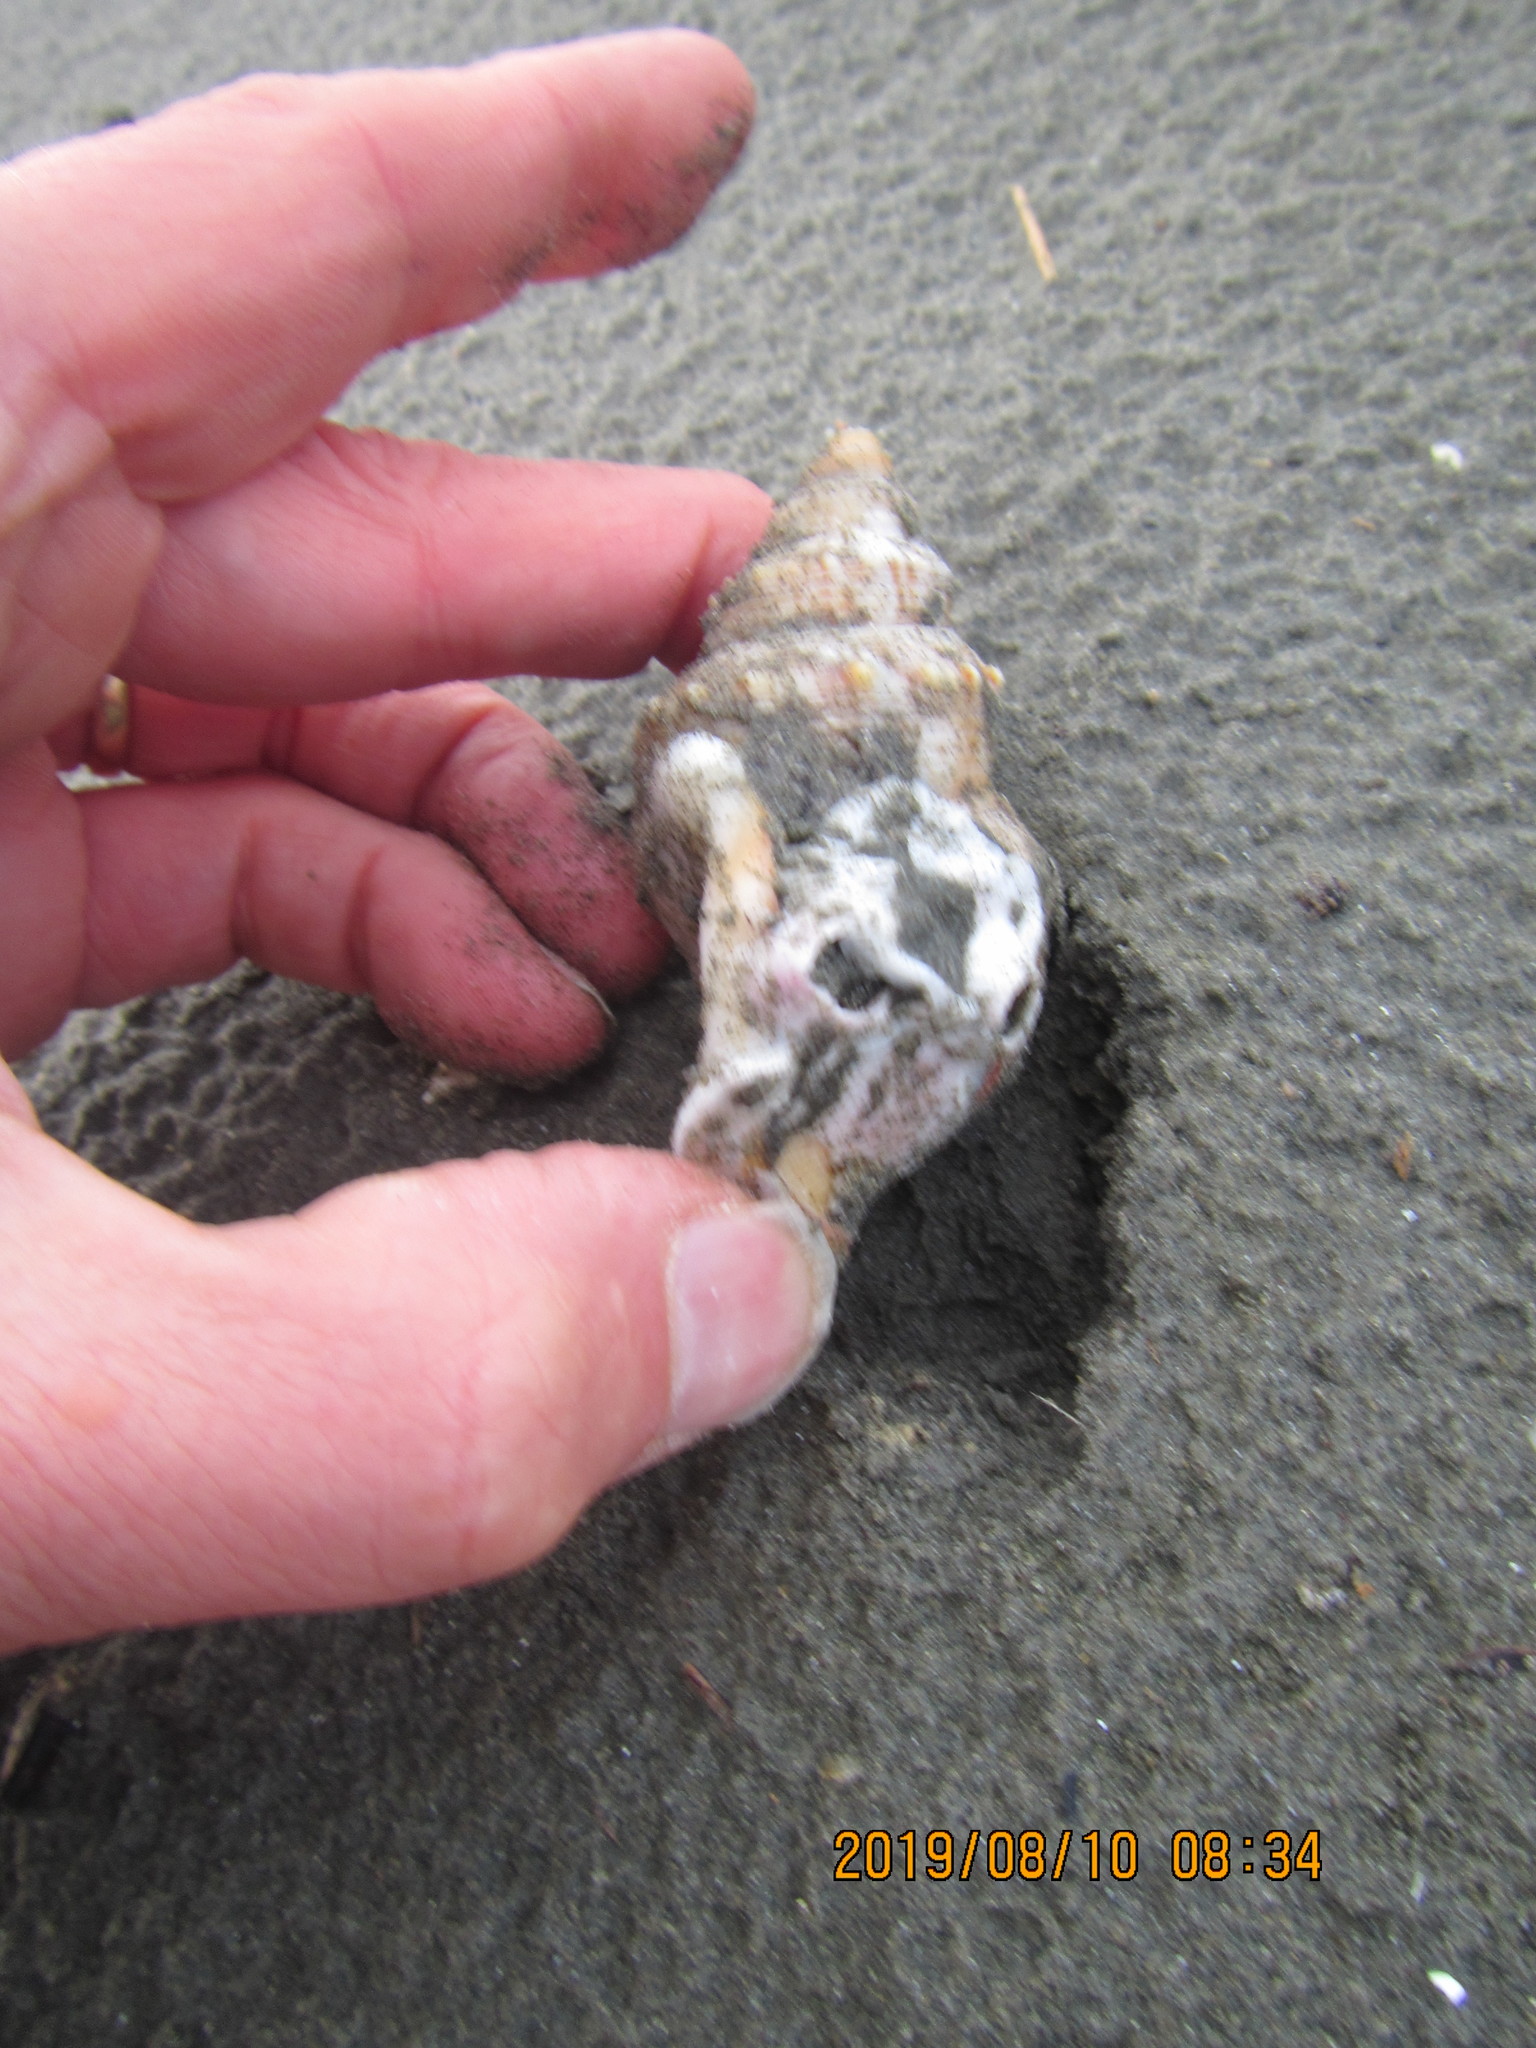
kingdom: Animalia
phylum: Mollusca
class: Gastropoda
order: Littorinimorpha
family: Struthiolariidae
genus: Struthiolaria
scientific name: Struthiolaria papulosa
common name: Large ostrich foot
